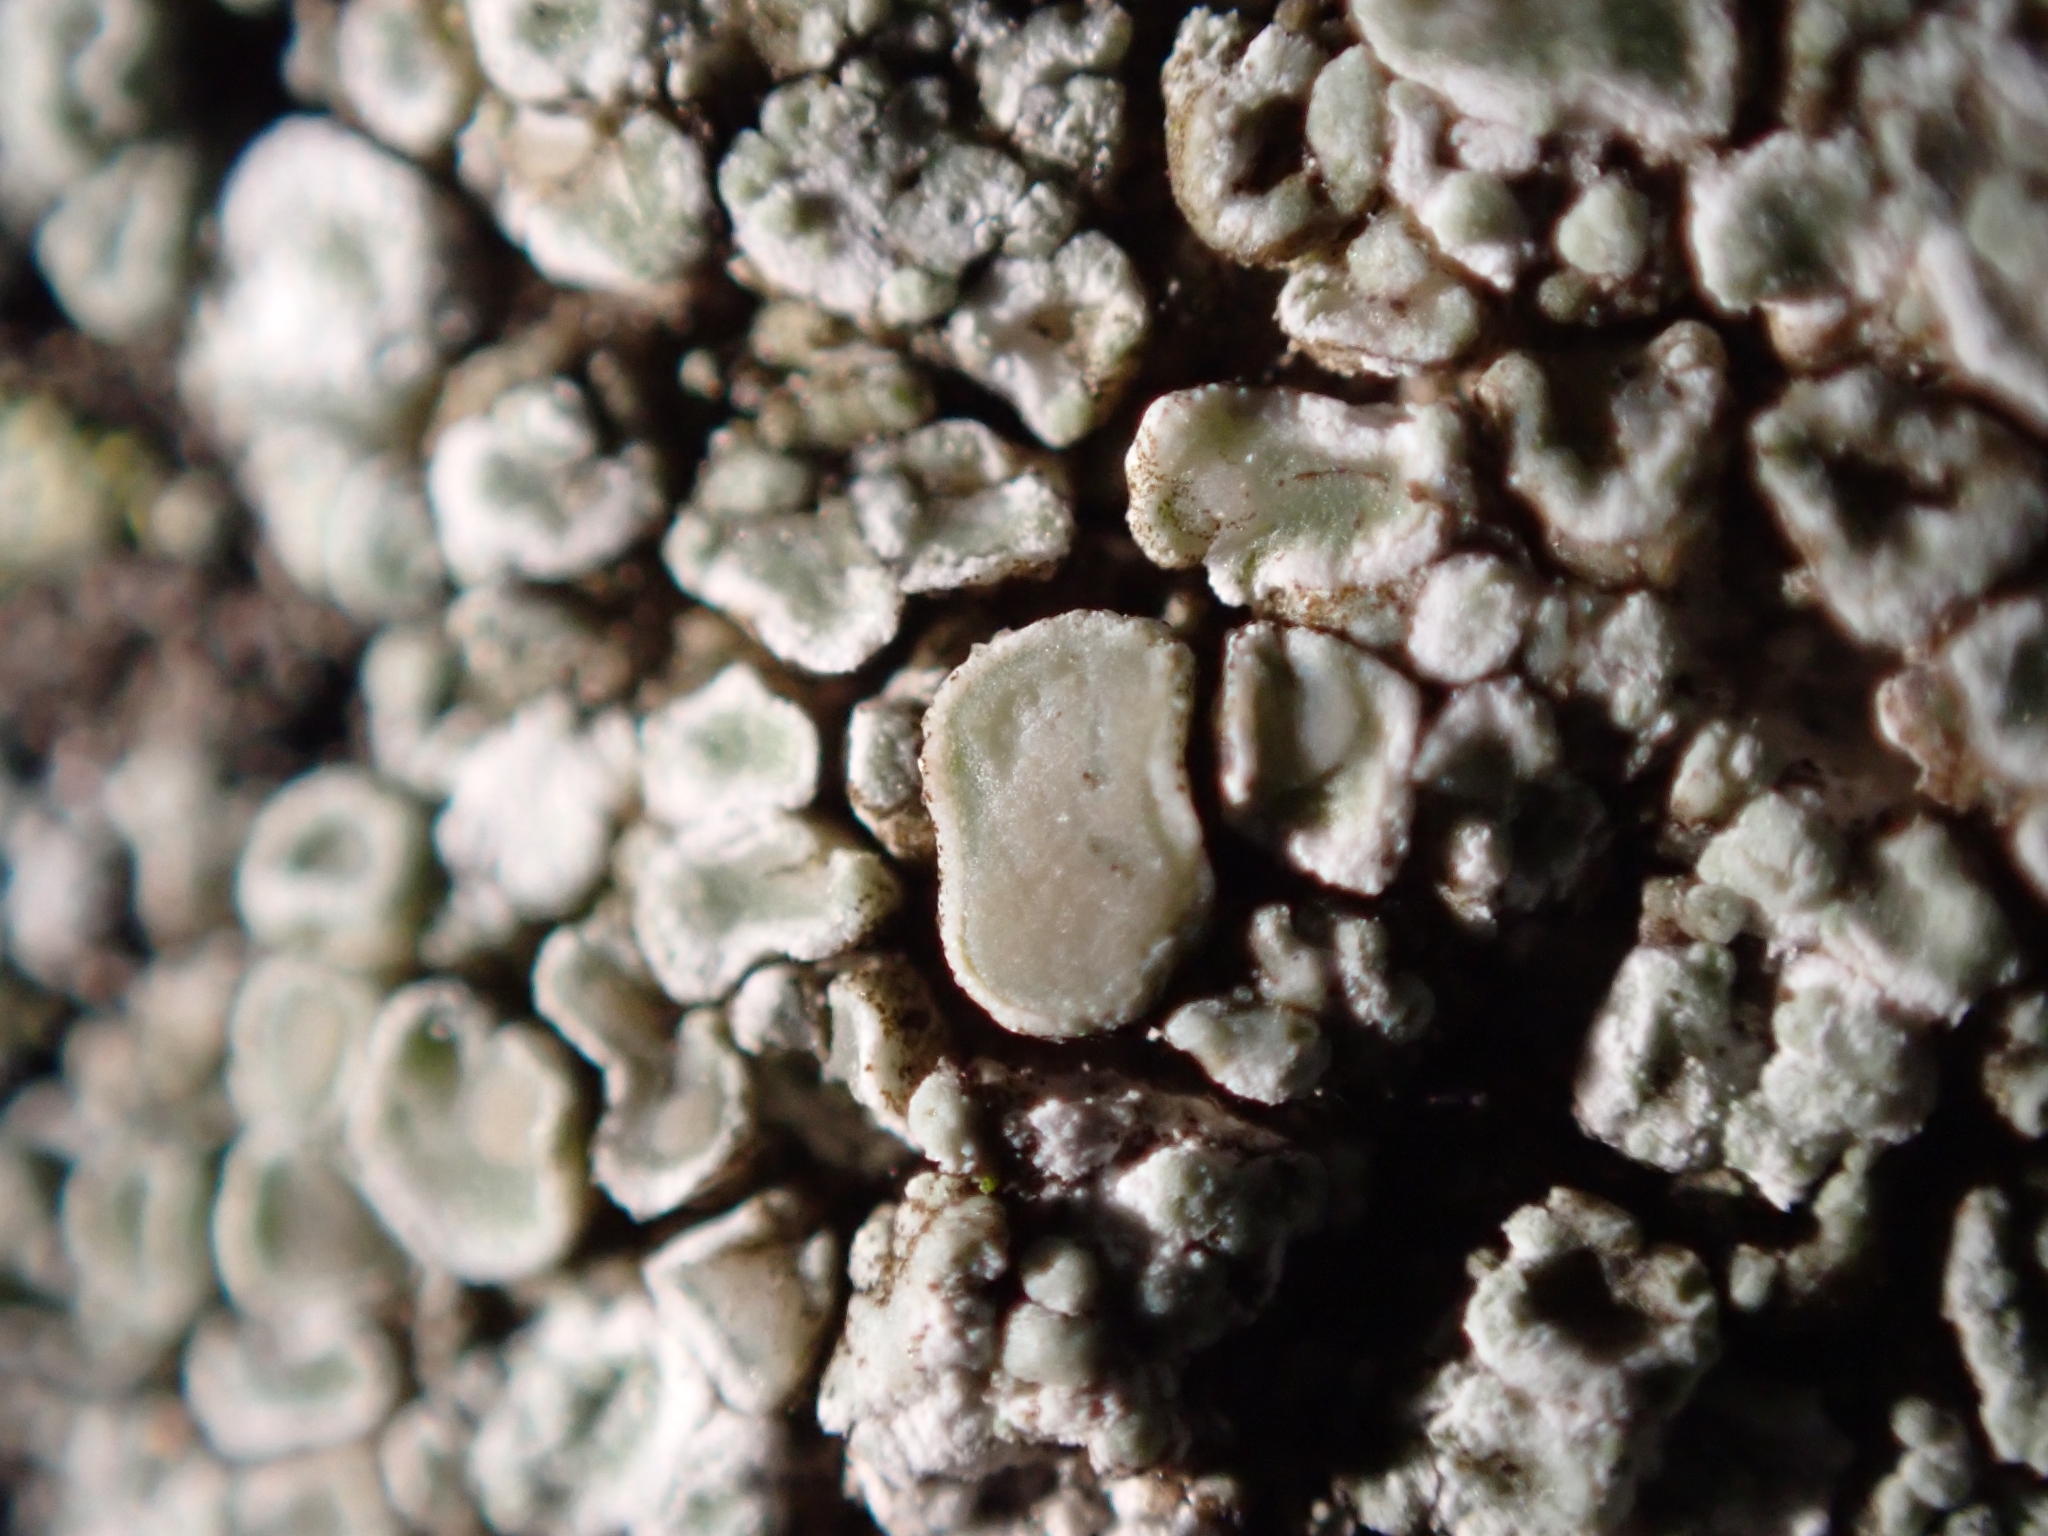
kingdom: Fungi
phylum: Ascomycota
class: Lecanoromycetes
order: Lecanorales
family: Lecanoraceae
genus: Polyozosia
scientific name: Polyozosia albescens
